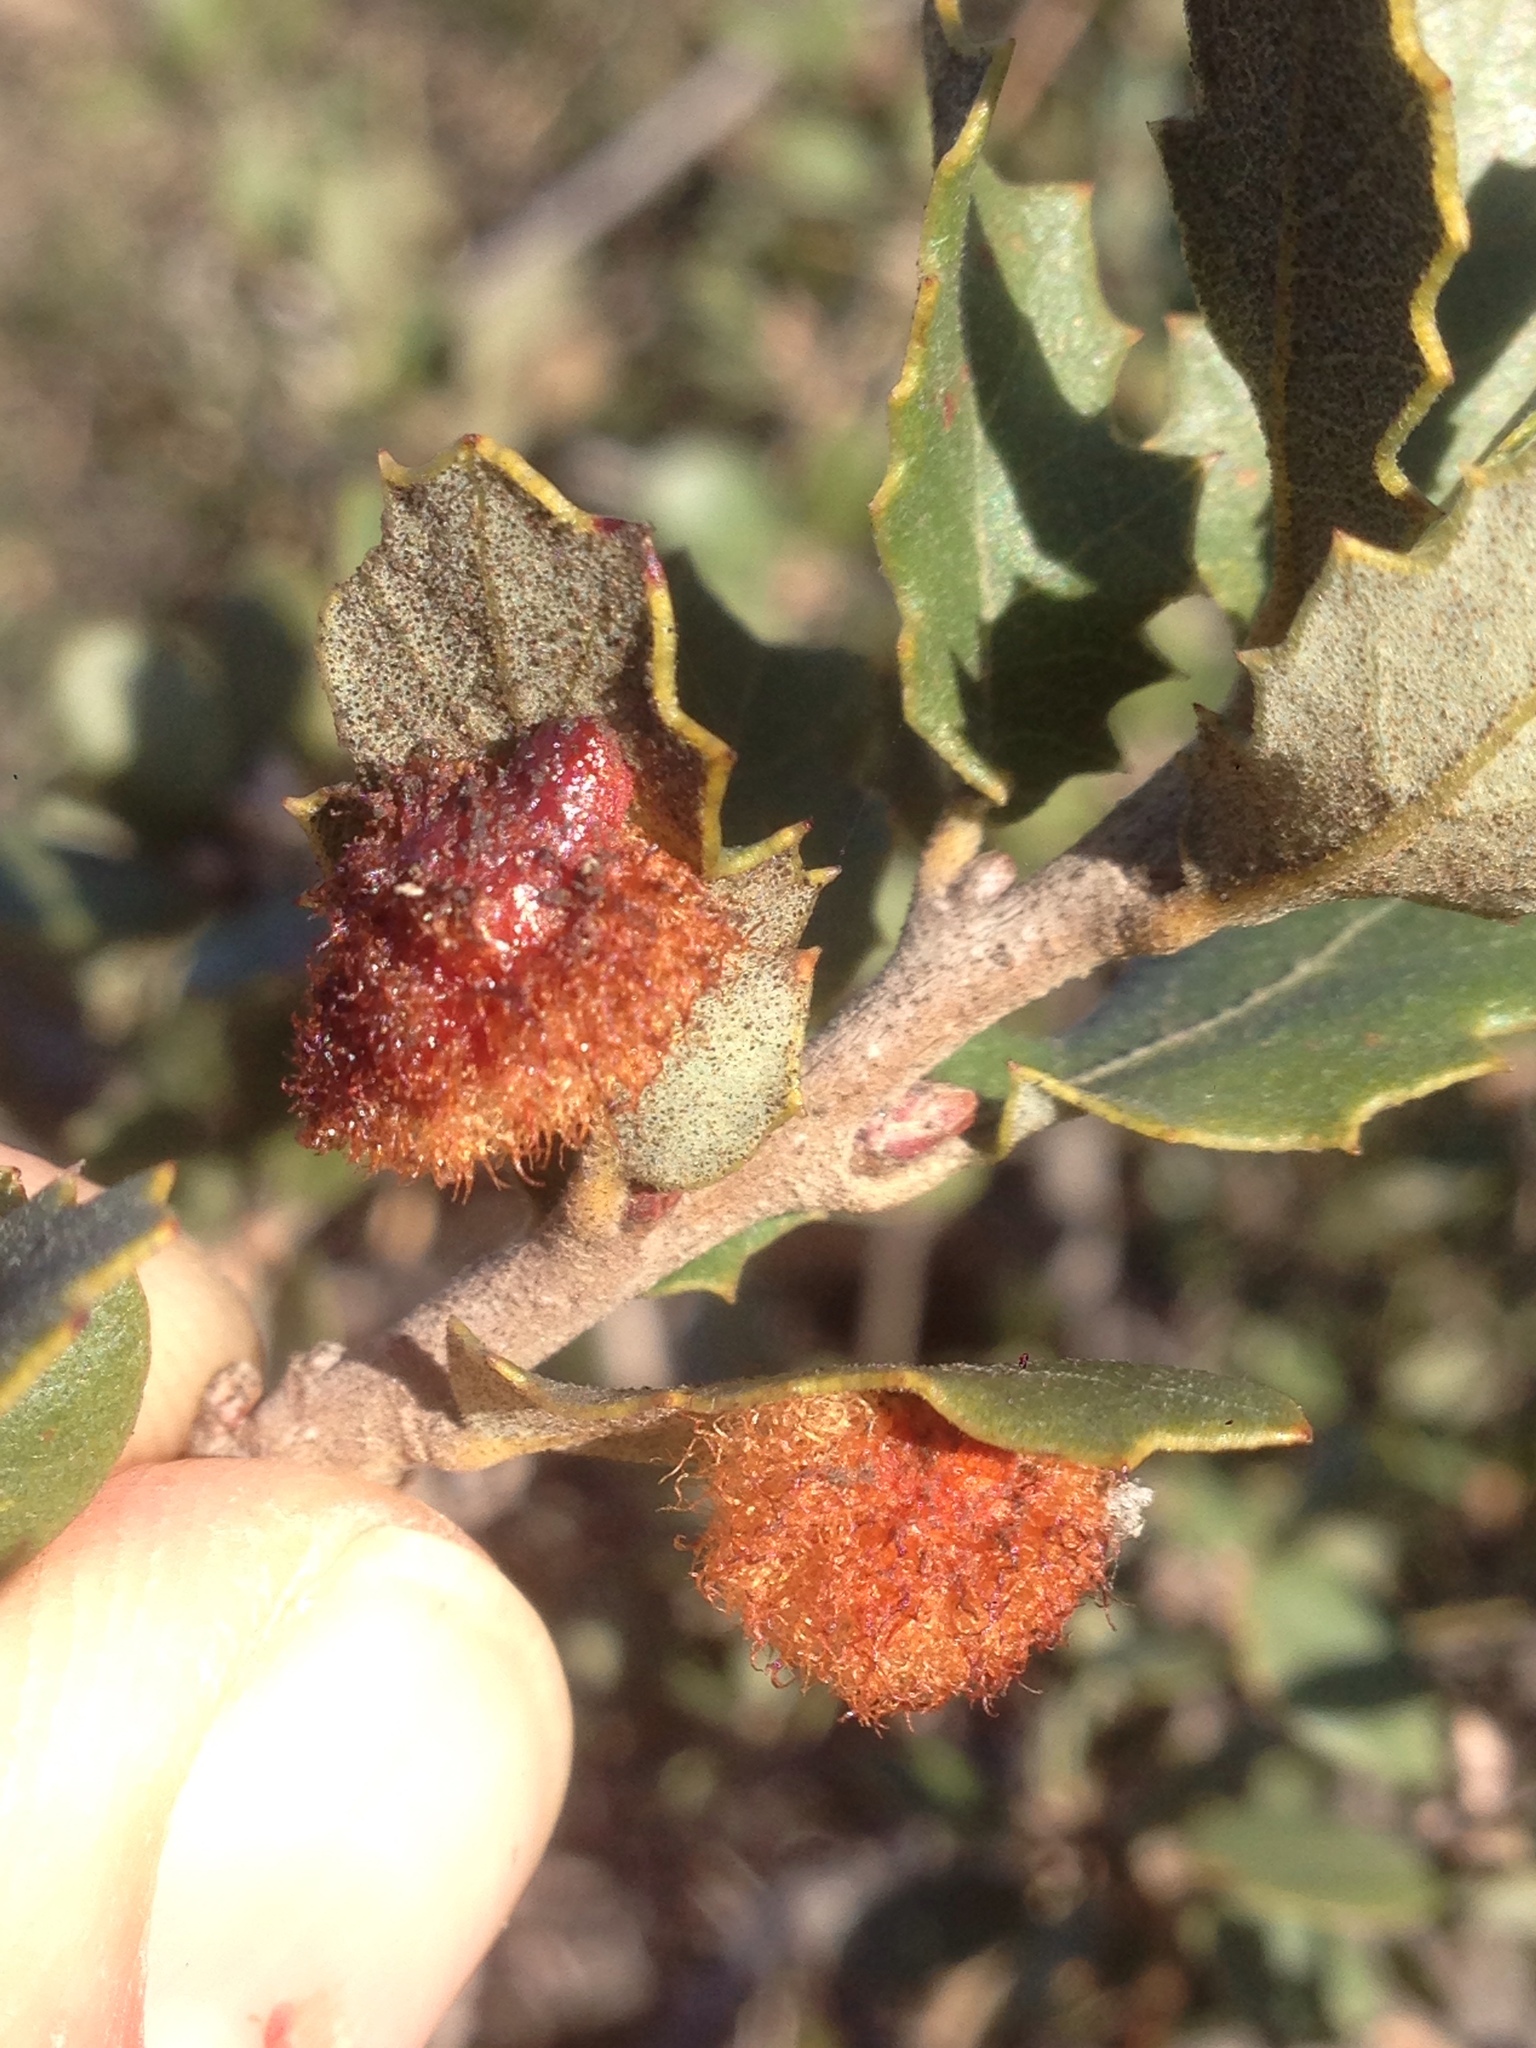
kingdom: Animalia
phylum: Arthropoda
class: Insecta
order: Hymenoptera
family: Cynipidae
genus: Andricus
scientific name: Andricus
